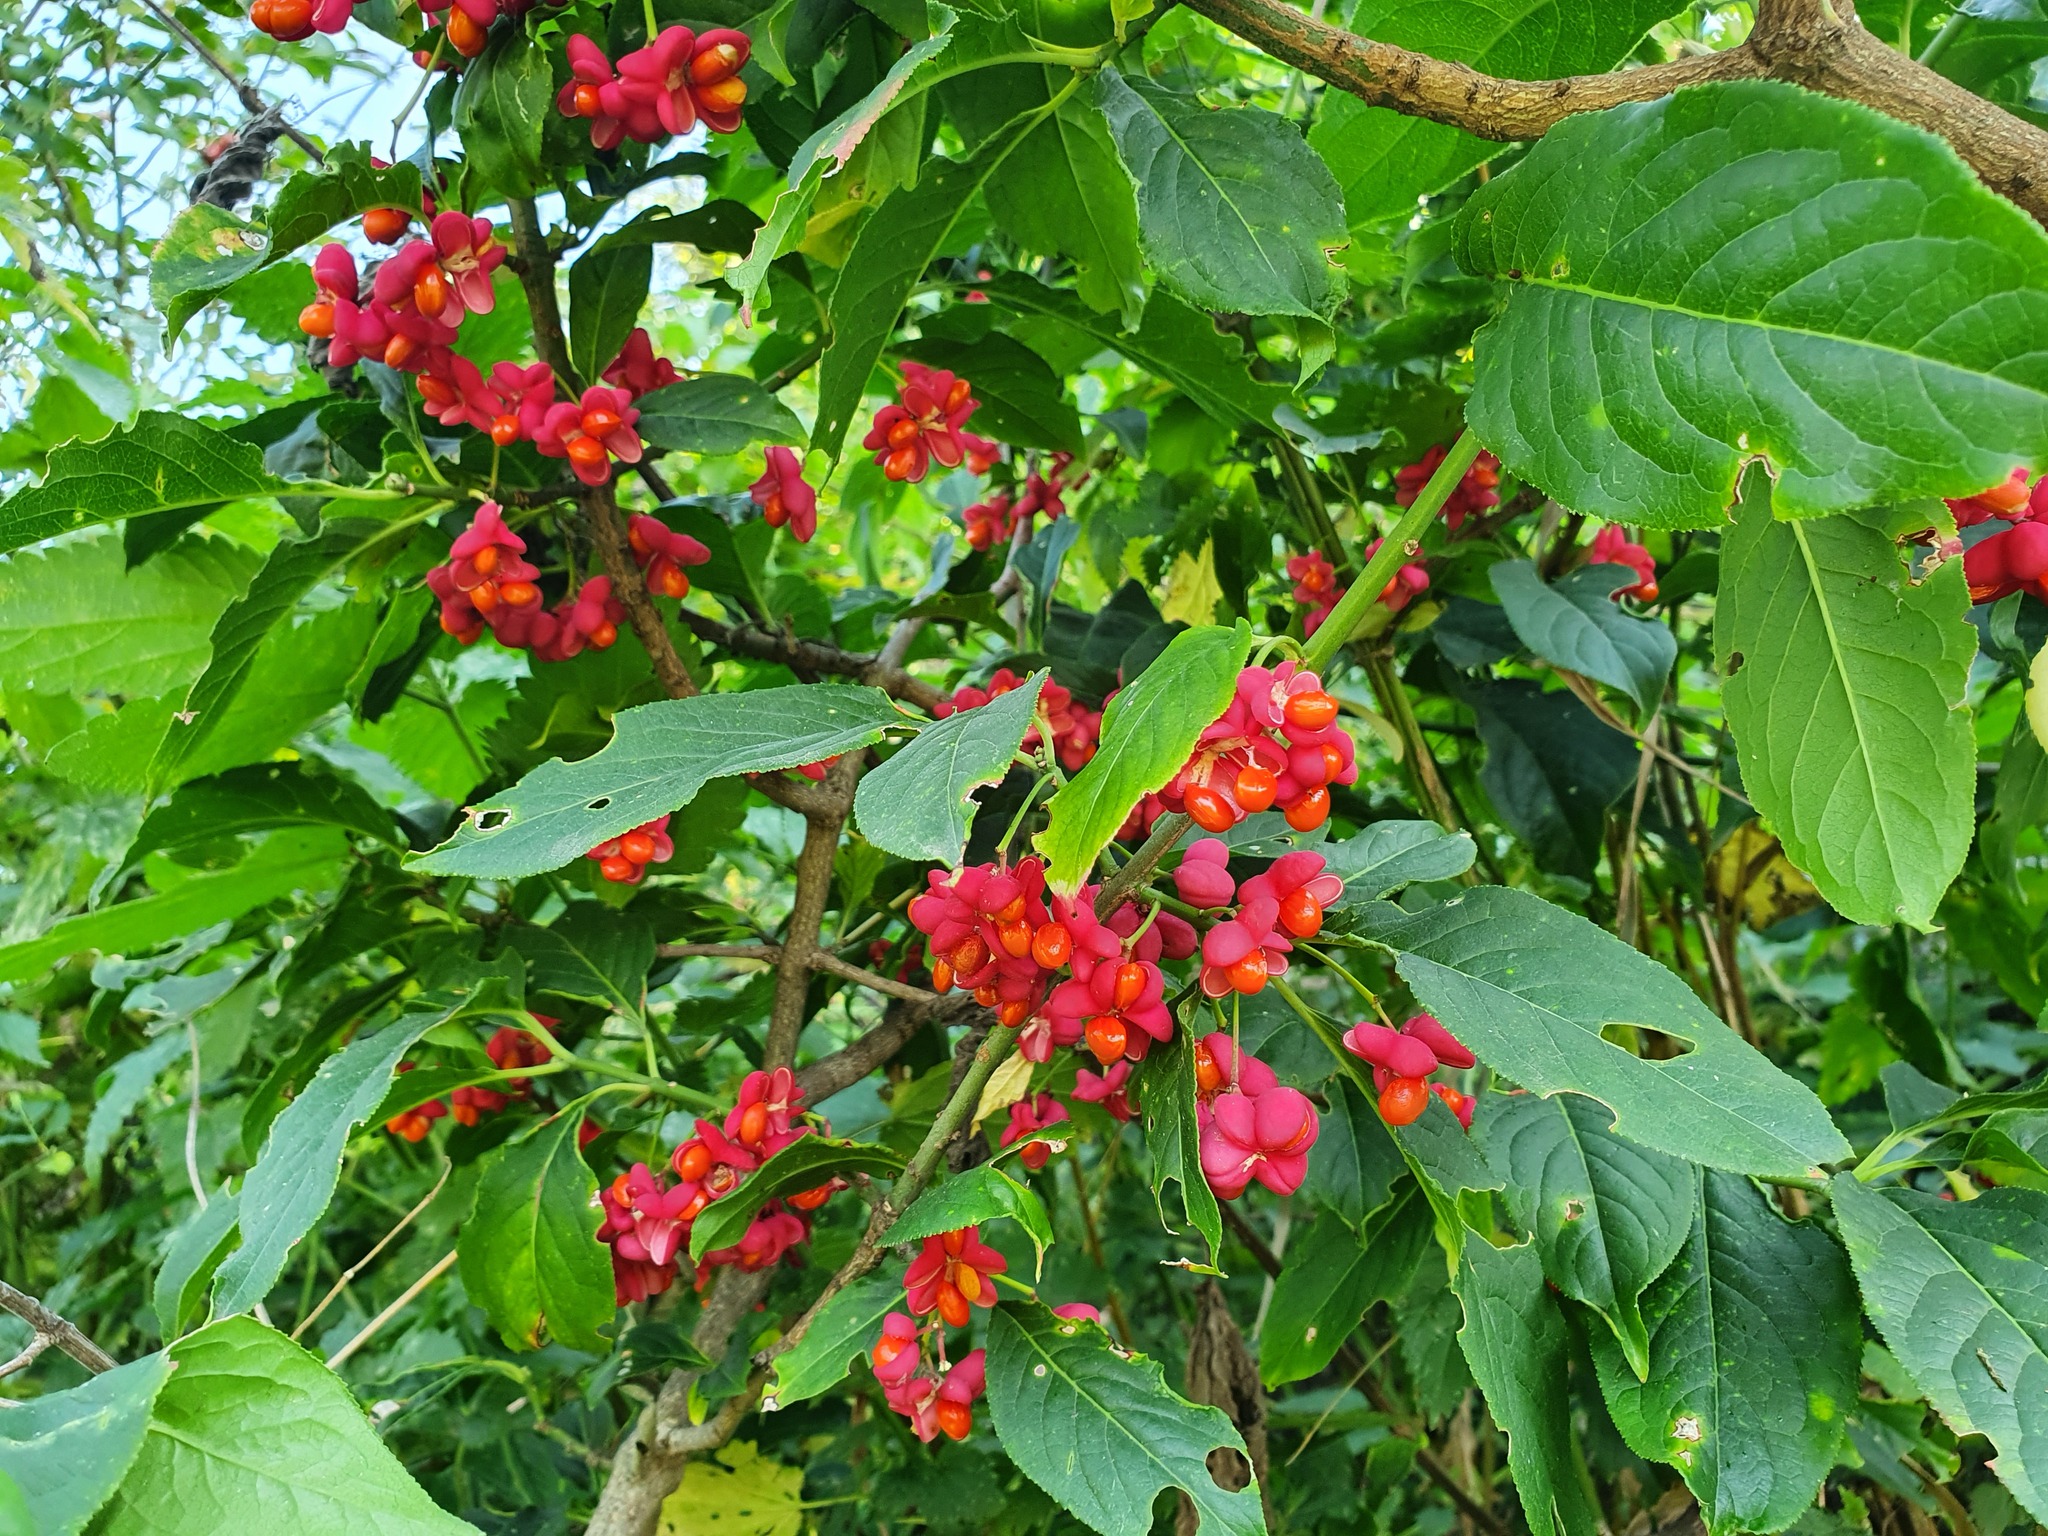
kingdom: Plantae
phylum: Tracheophyta
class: Magnoliopsida
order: Celastrales
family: Celastraceae
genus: Euonymus
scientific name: Euonymus europaeus
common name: Spindle
